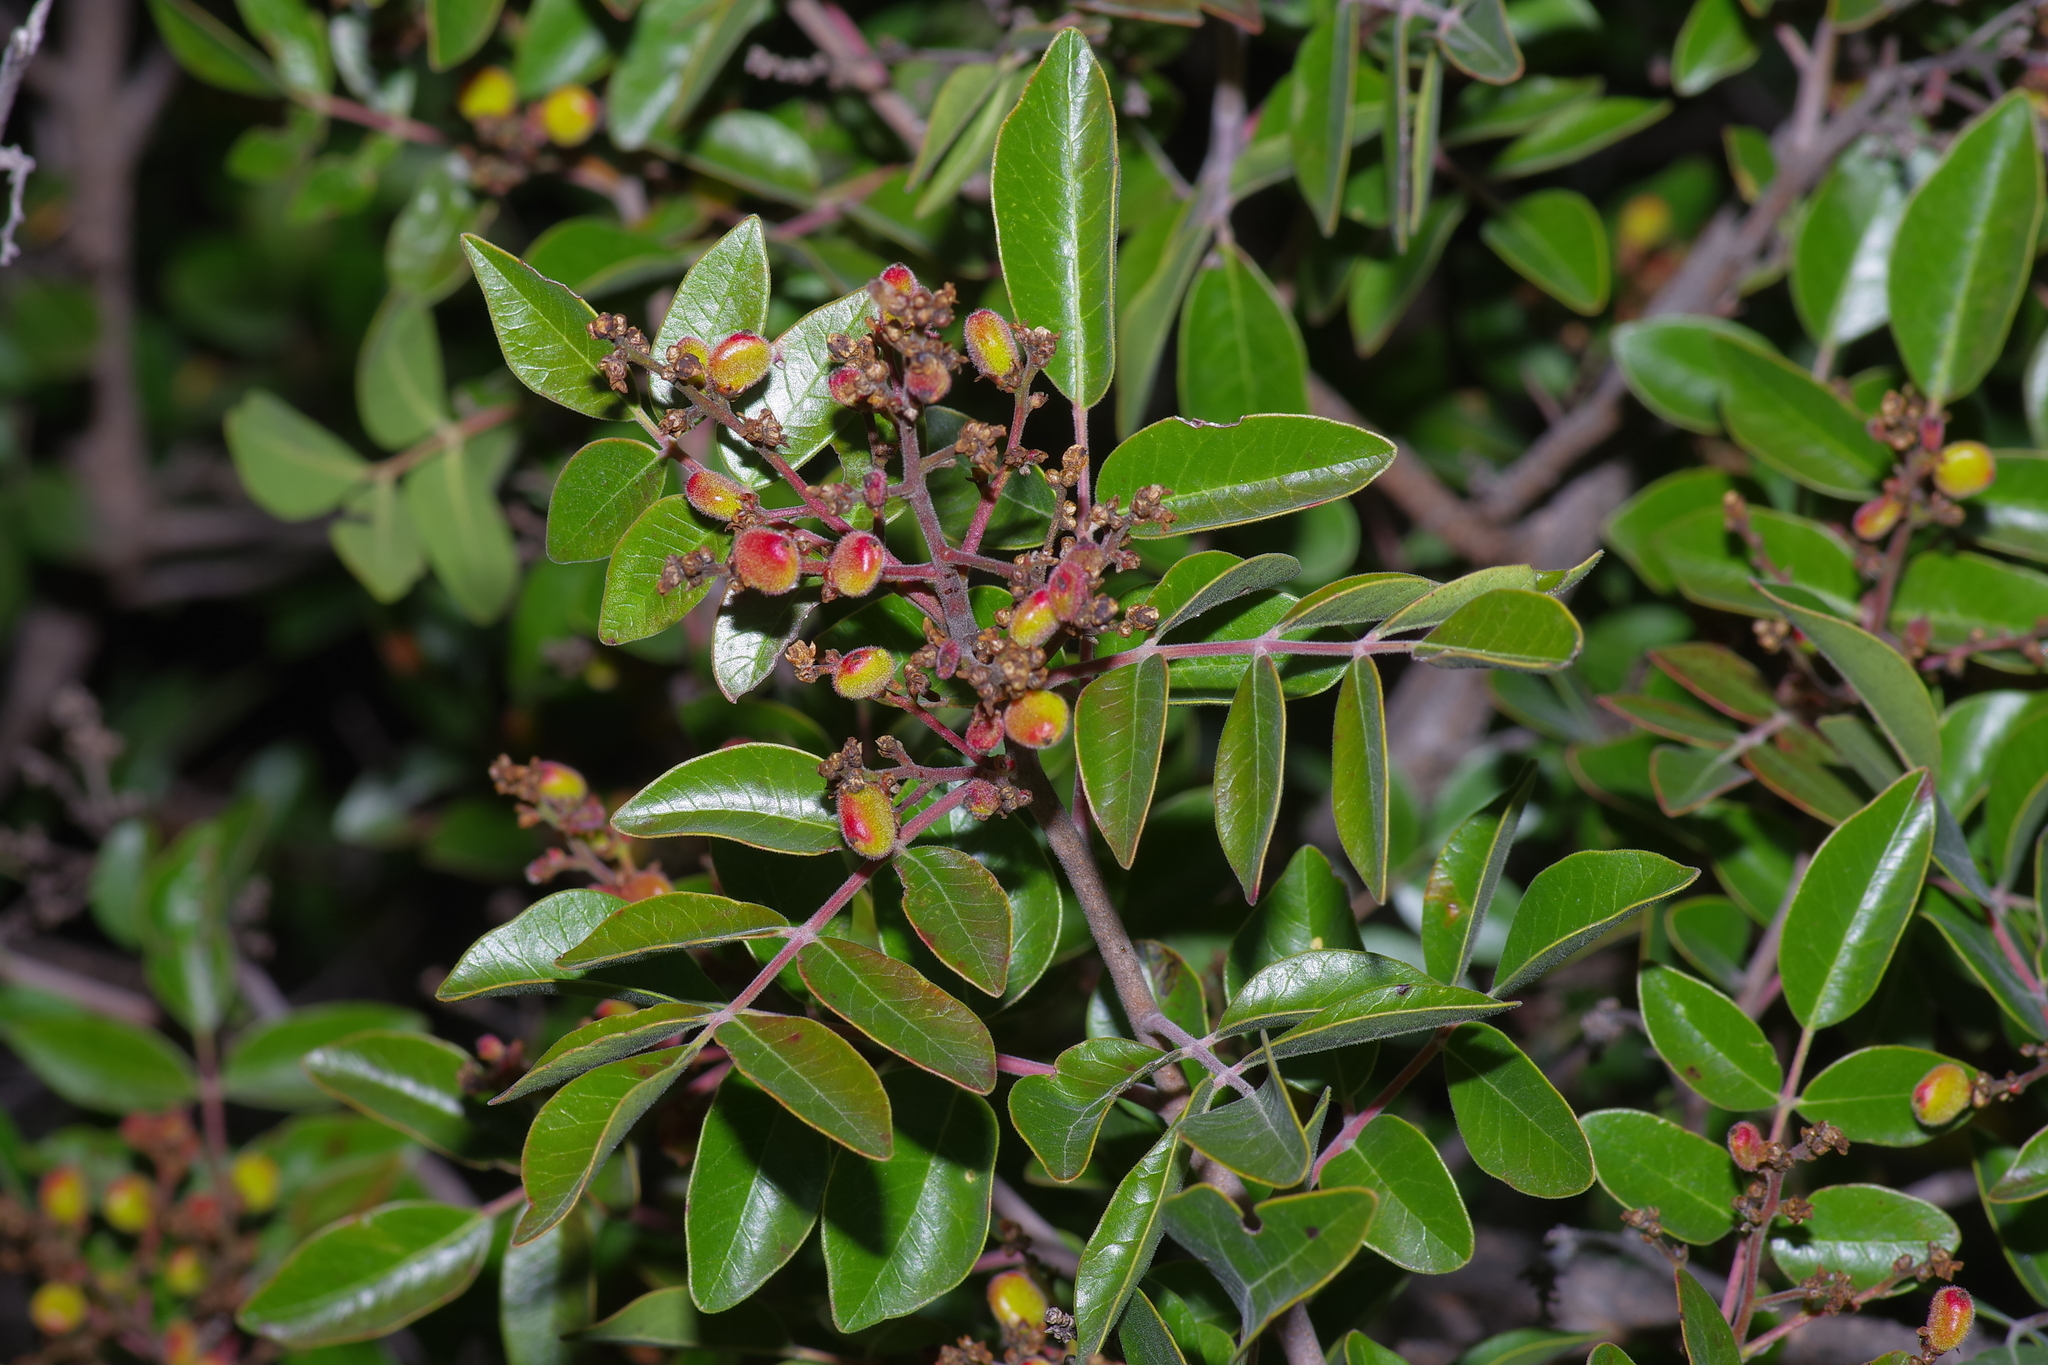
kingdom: Plantae
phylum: Tracheophyta
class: Magnoliopsida
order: Sapindales
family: Anacardiaceae
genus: Rhus
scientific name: Rhus virens
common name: Evergreen sumac
